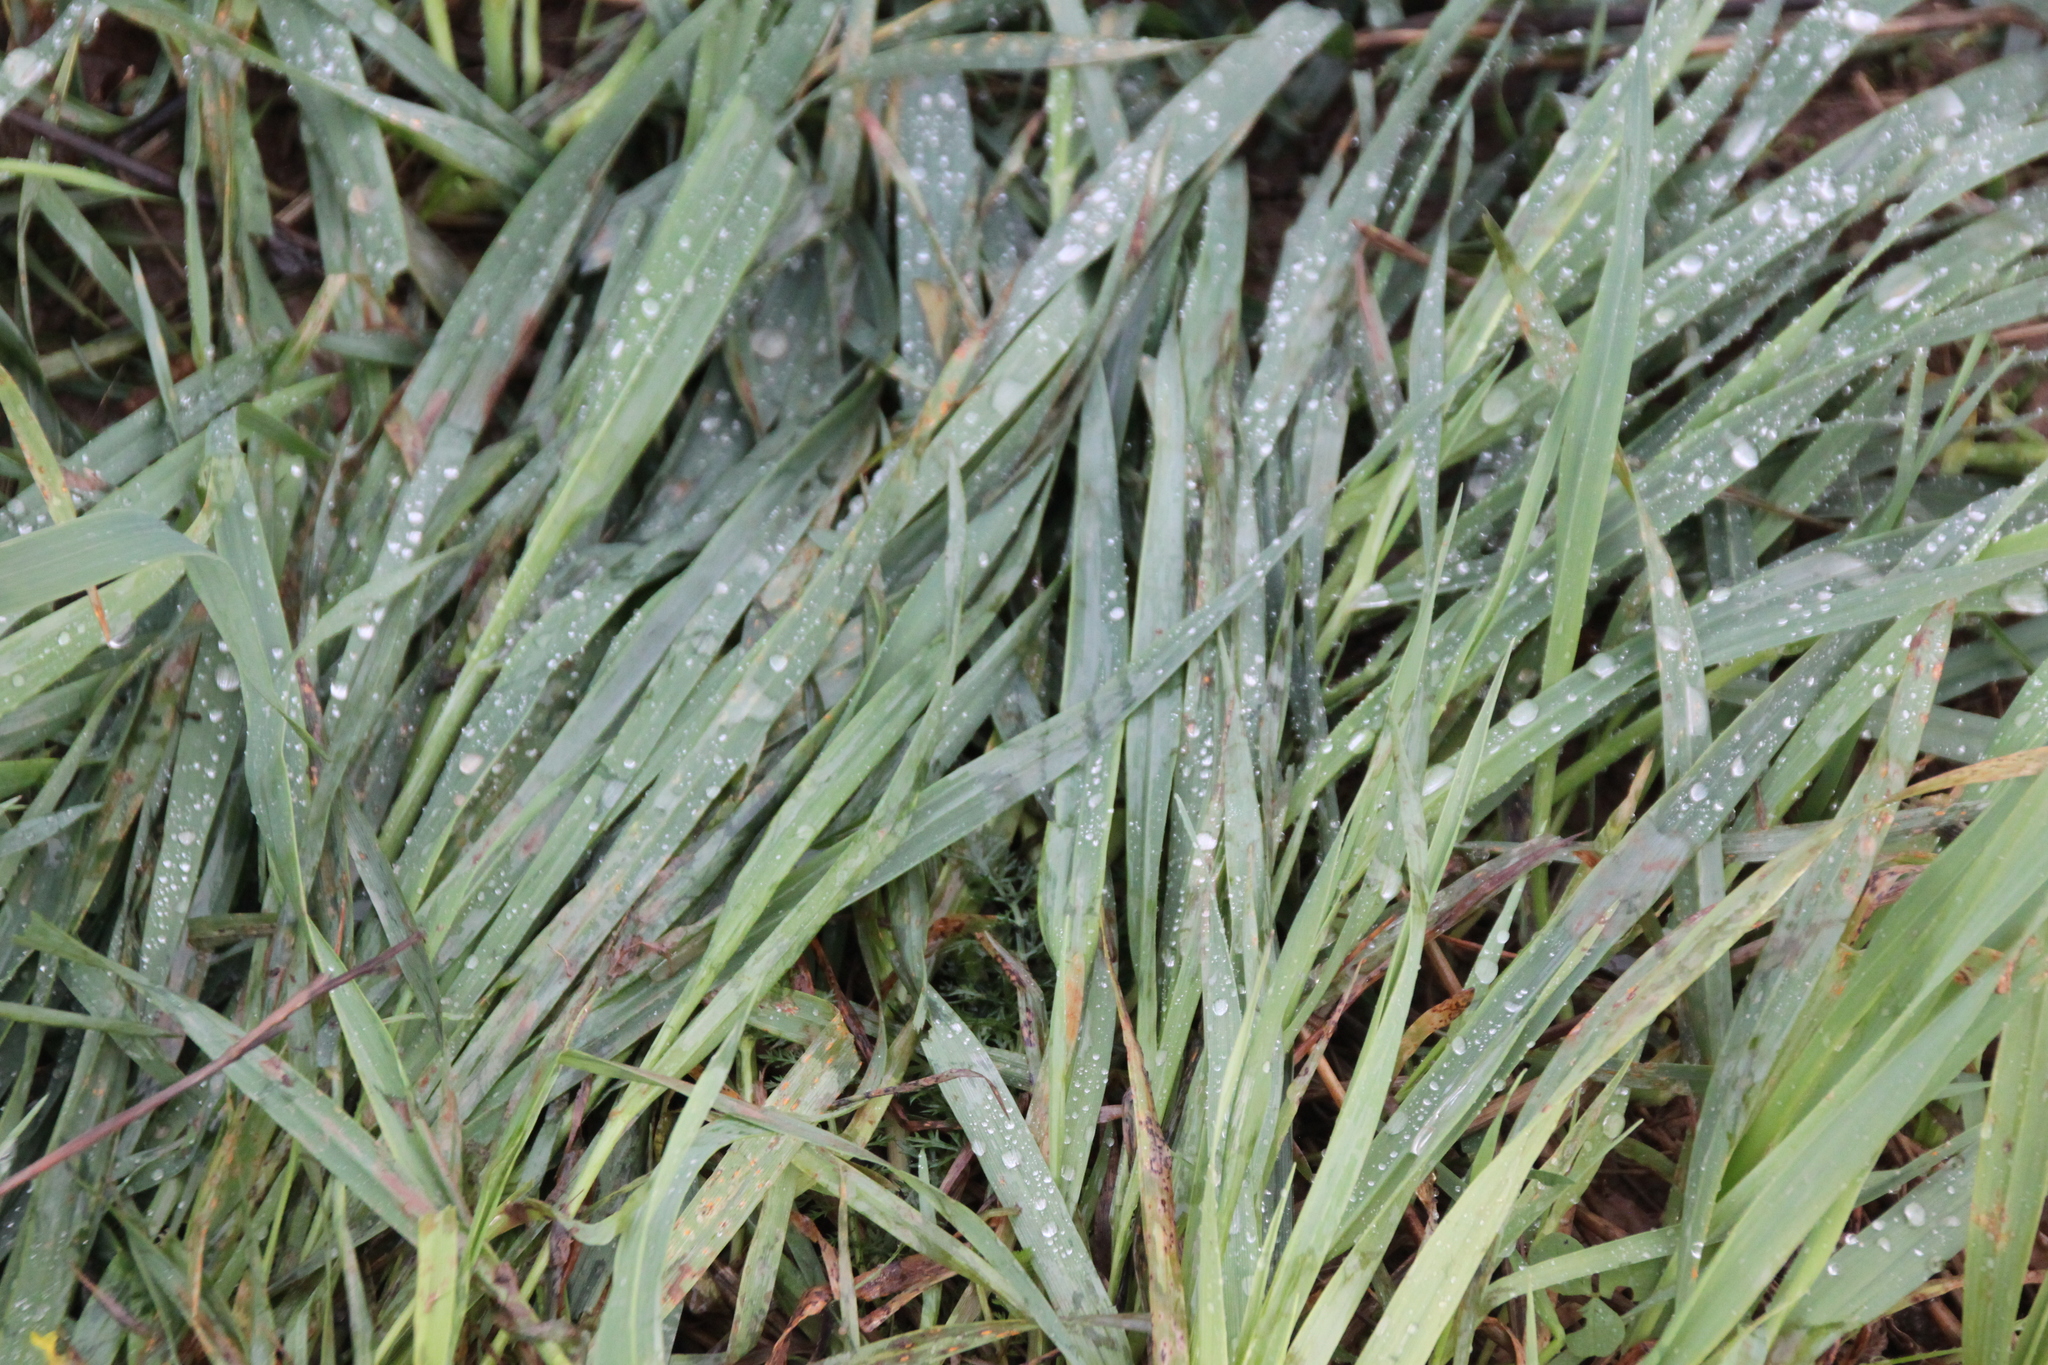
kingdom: Plantae
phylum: Tracheophyta
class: Liliopsida
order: Poales
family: Poaceae
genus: Dactylis
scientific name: Dactylis glomerata
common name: Orchardgrass
